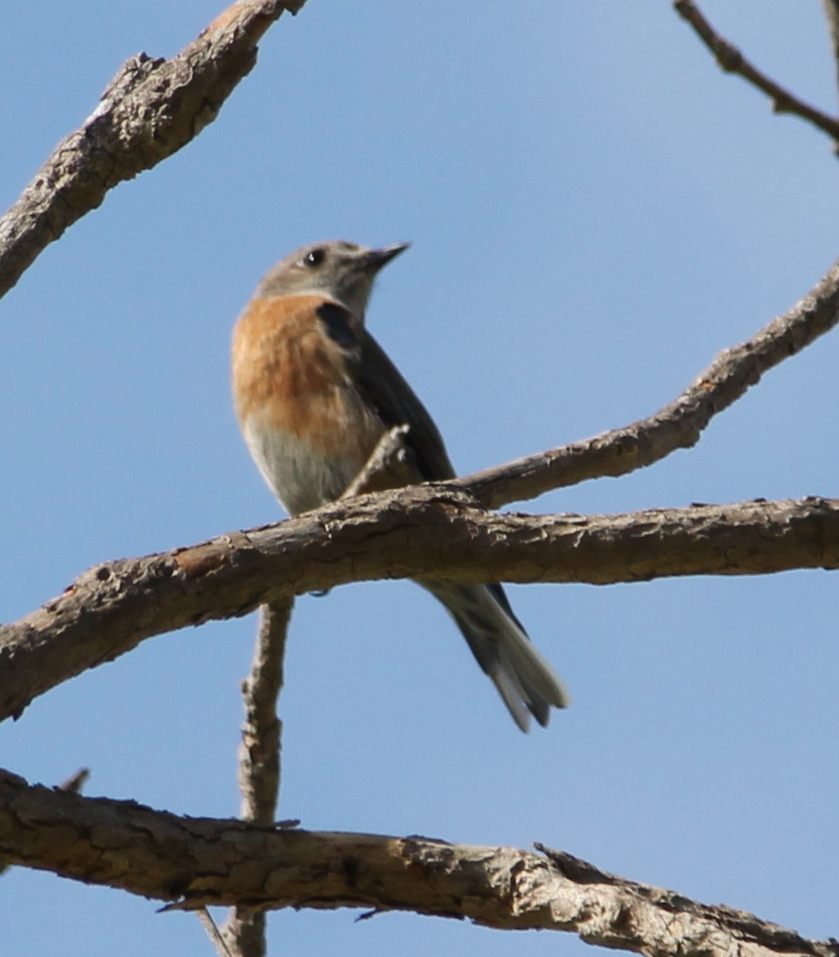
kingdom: Animalia
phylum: Chordata
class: Aves
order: Passeriformes
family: Turdidae
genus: Sialia
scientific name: Sialia mexicana
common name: Western bluebird
